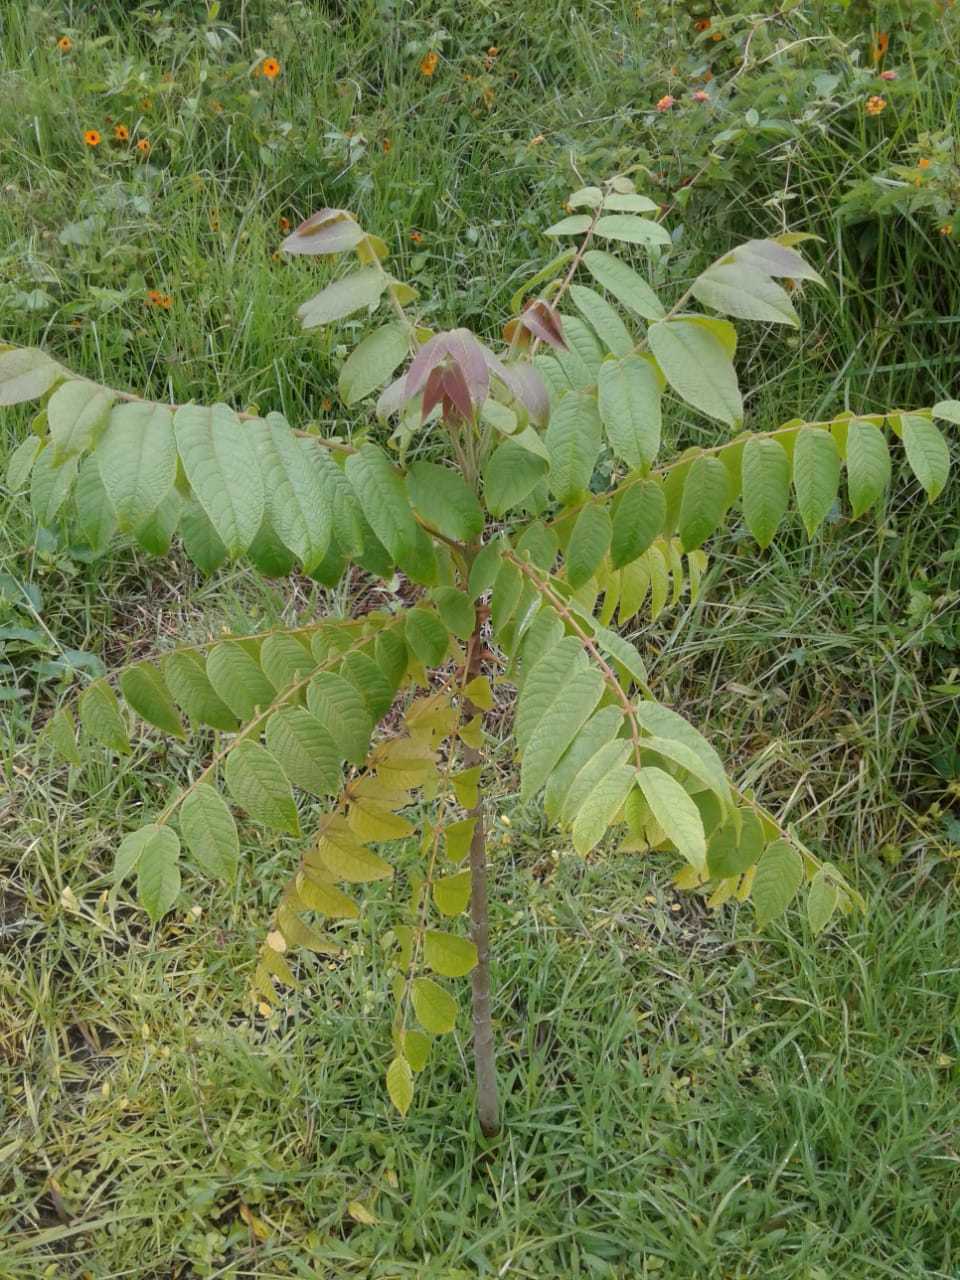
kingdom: Plantae
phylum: Tracheophyta
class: Magnoliopsida
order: Fagales
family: Juglandaceae
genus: Juglans
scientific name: Juglans neotropica
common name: Andean walnut
